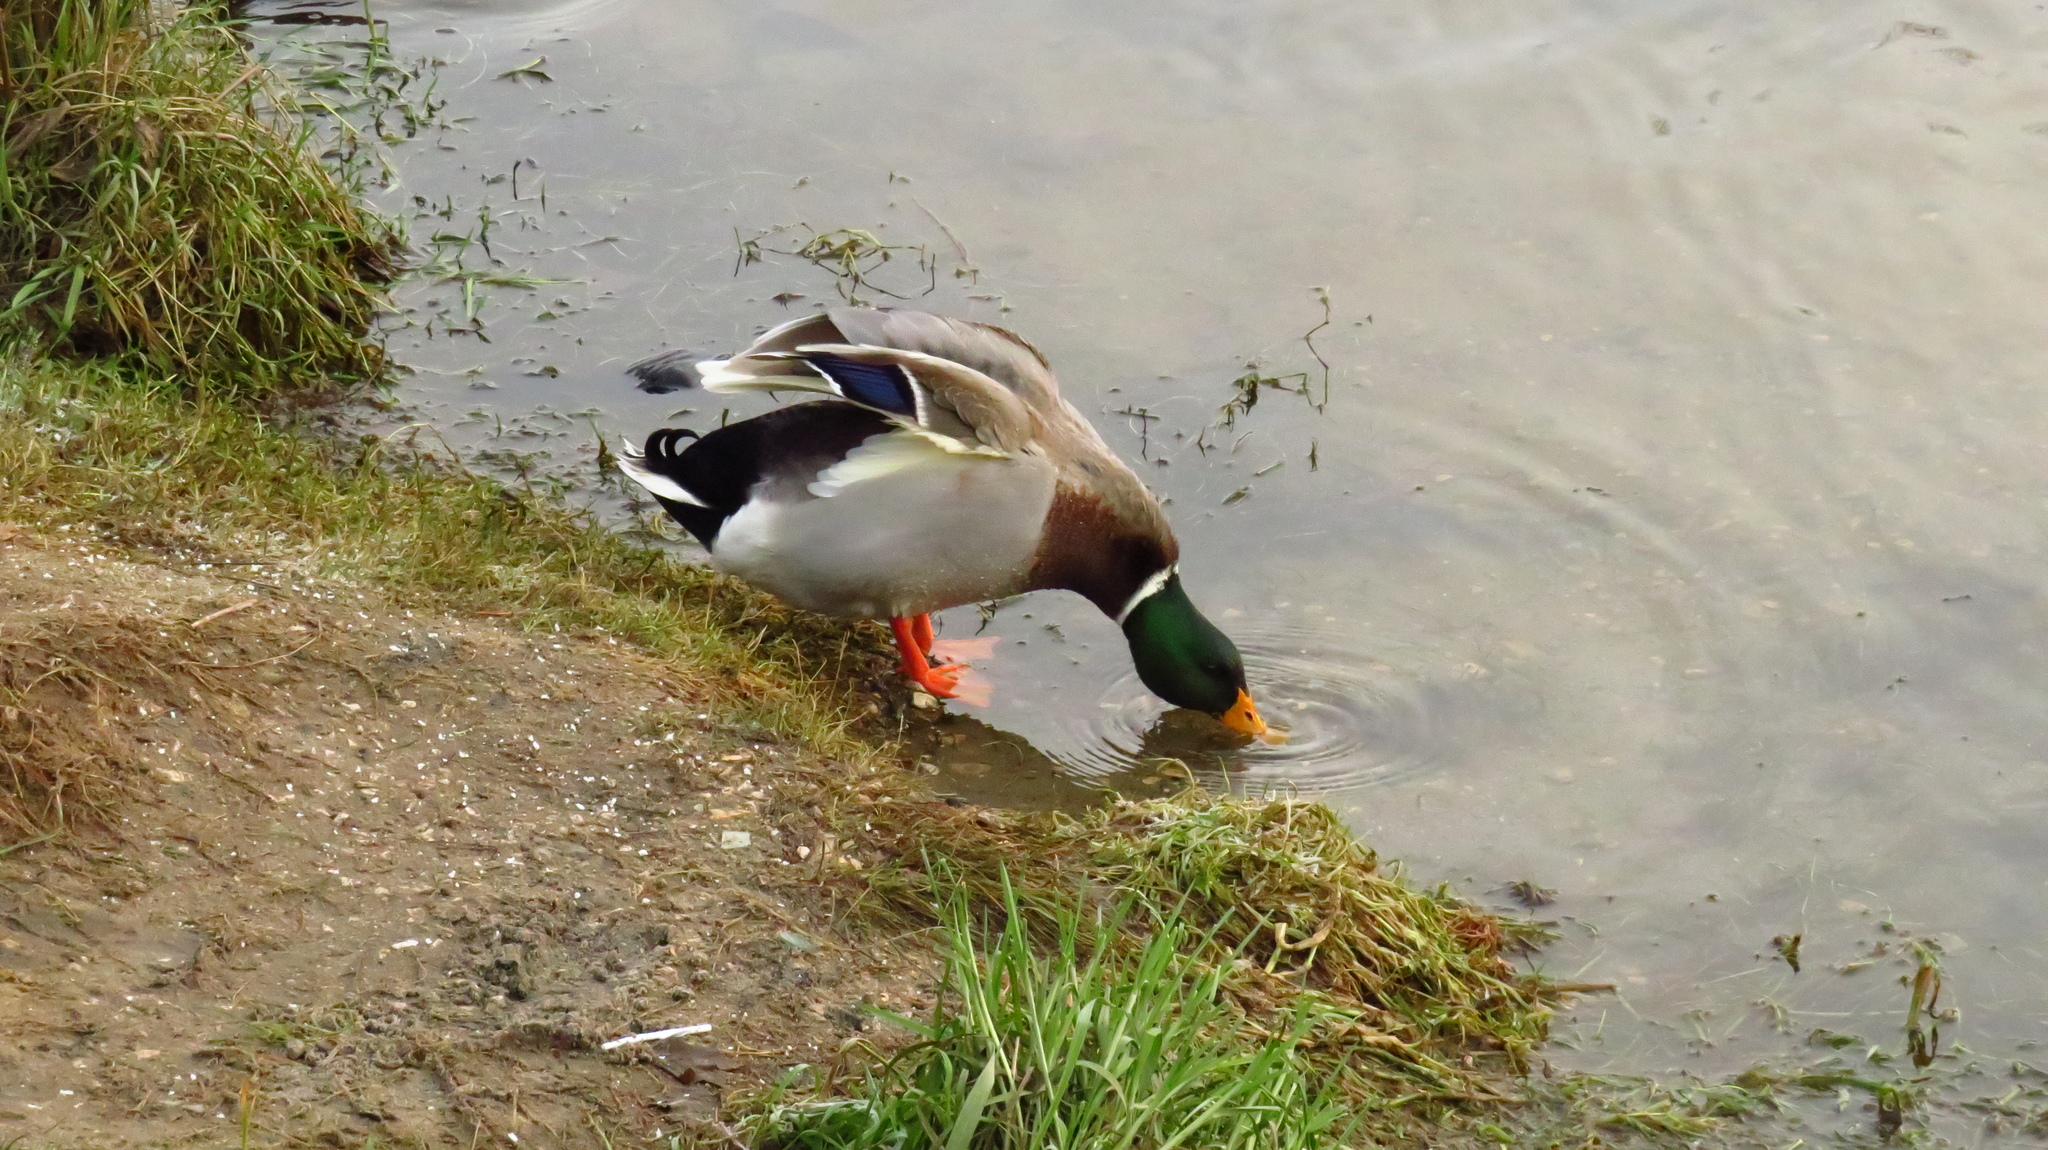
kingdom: Animalia
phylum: Chordata
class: Aves
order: Anseriformes
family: Anatidae
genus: Anas
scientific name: Anas platyrhynchos
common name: Mallard
